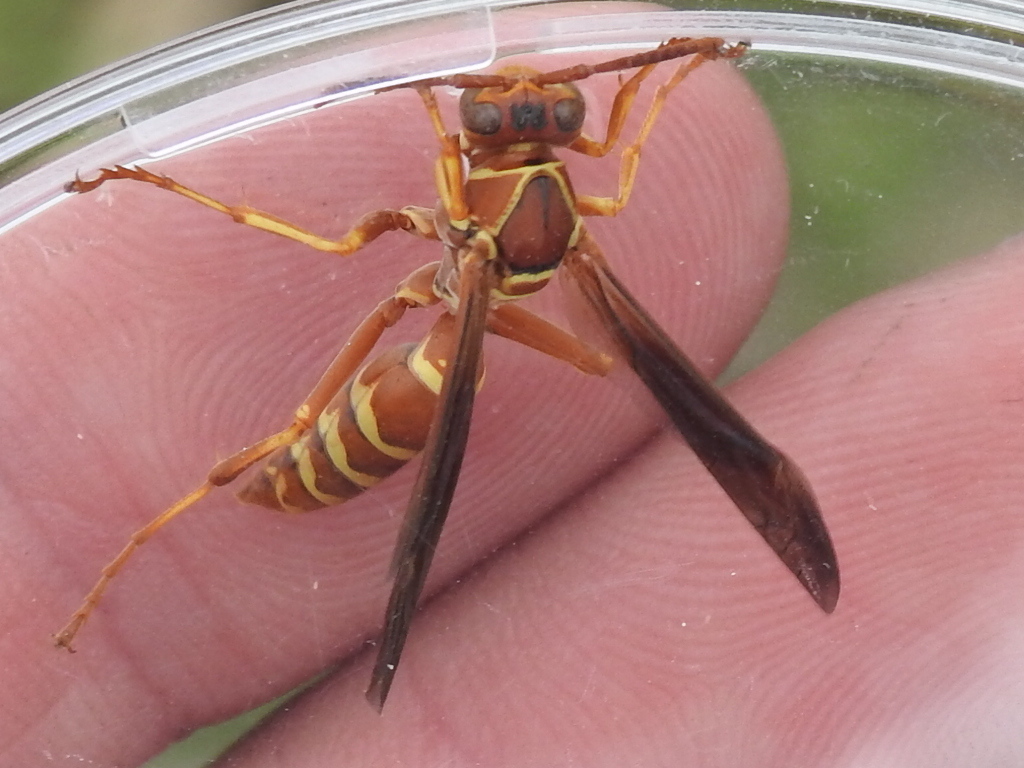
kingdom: Animalia
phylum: Arthropoda
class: Insecta
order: Hymenoptera
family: Eumenidae
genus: Polistes
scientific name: Polistes bellicosus
